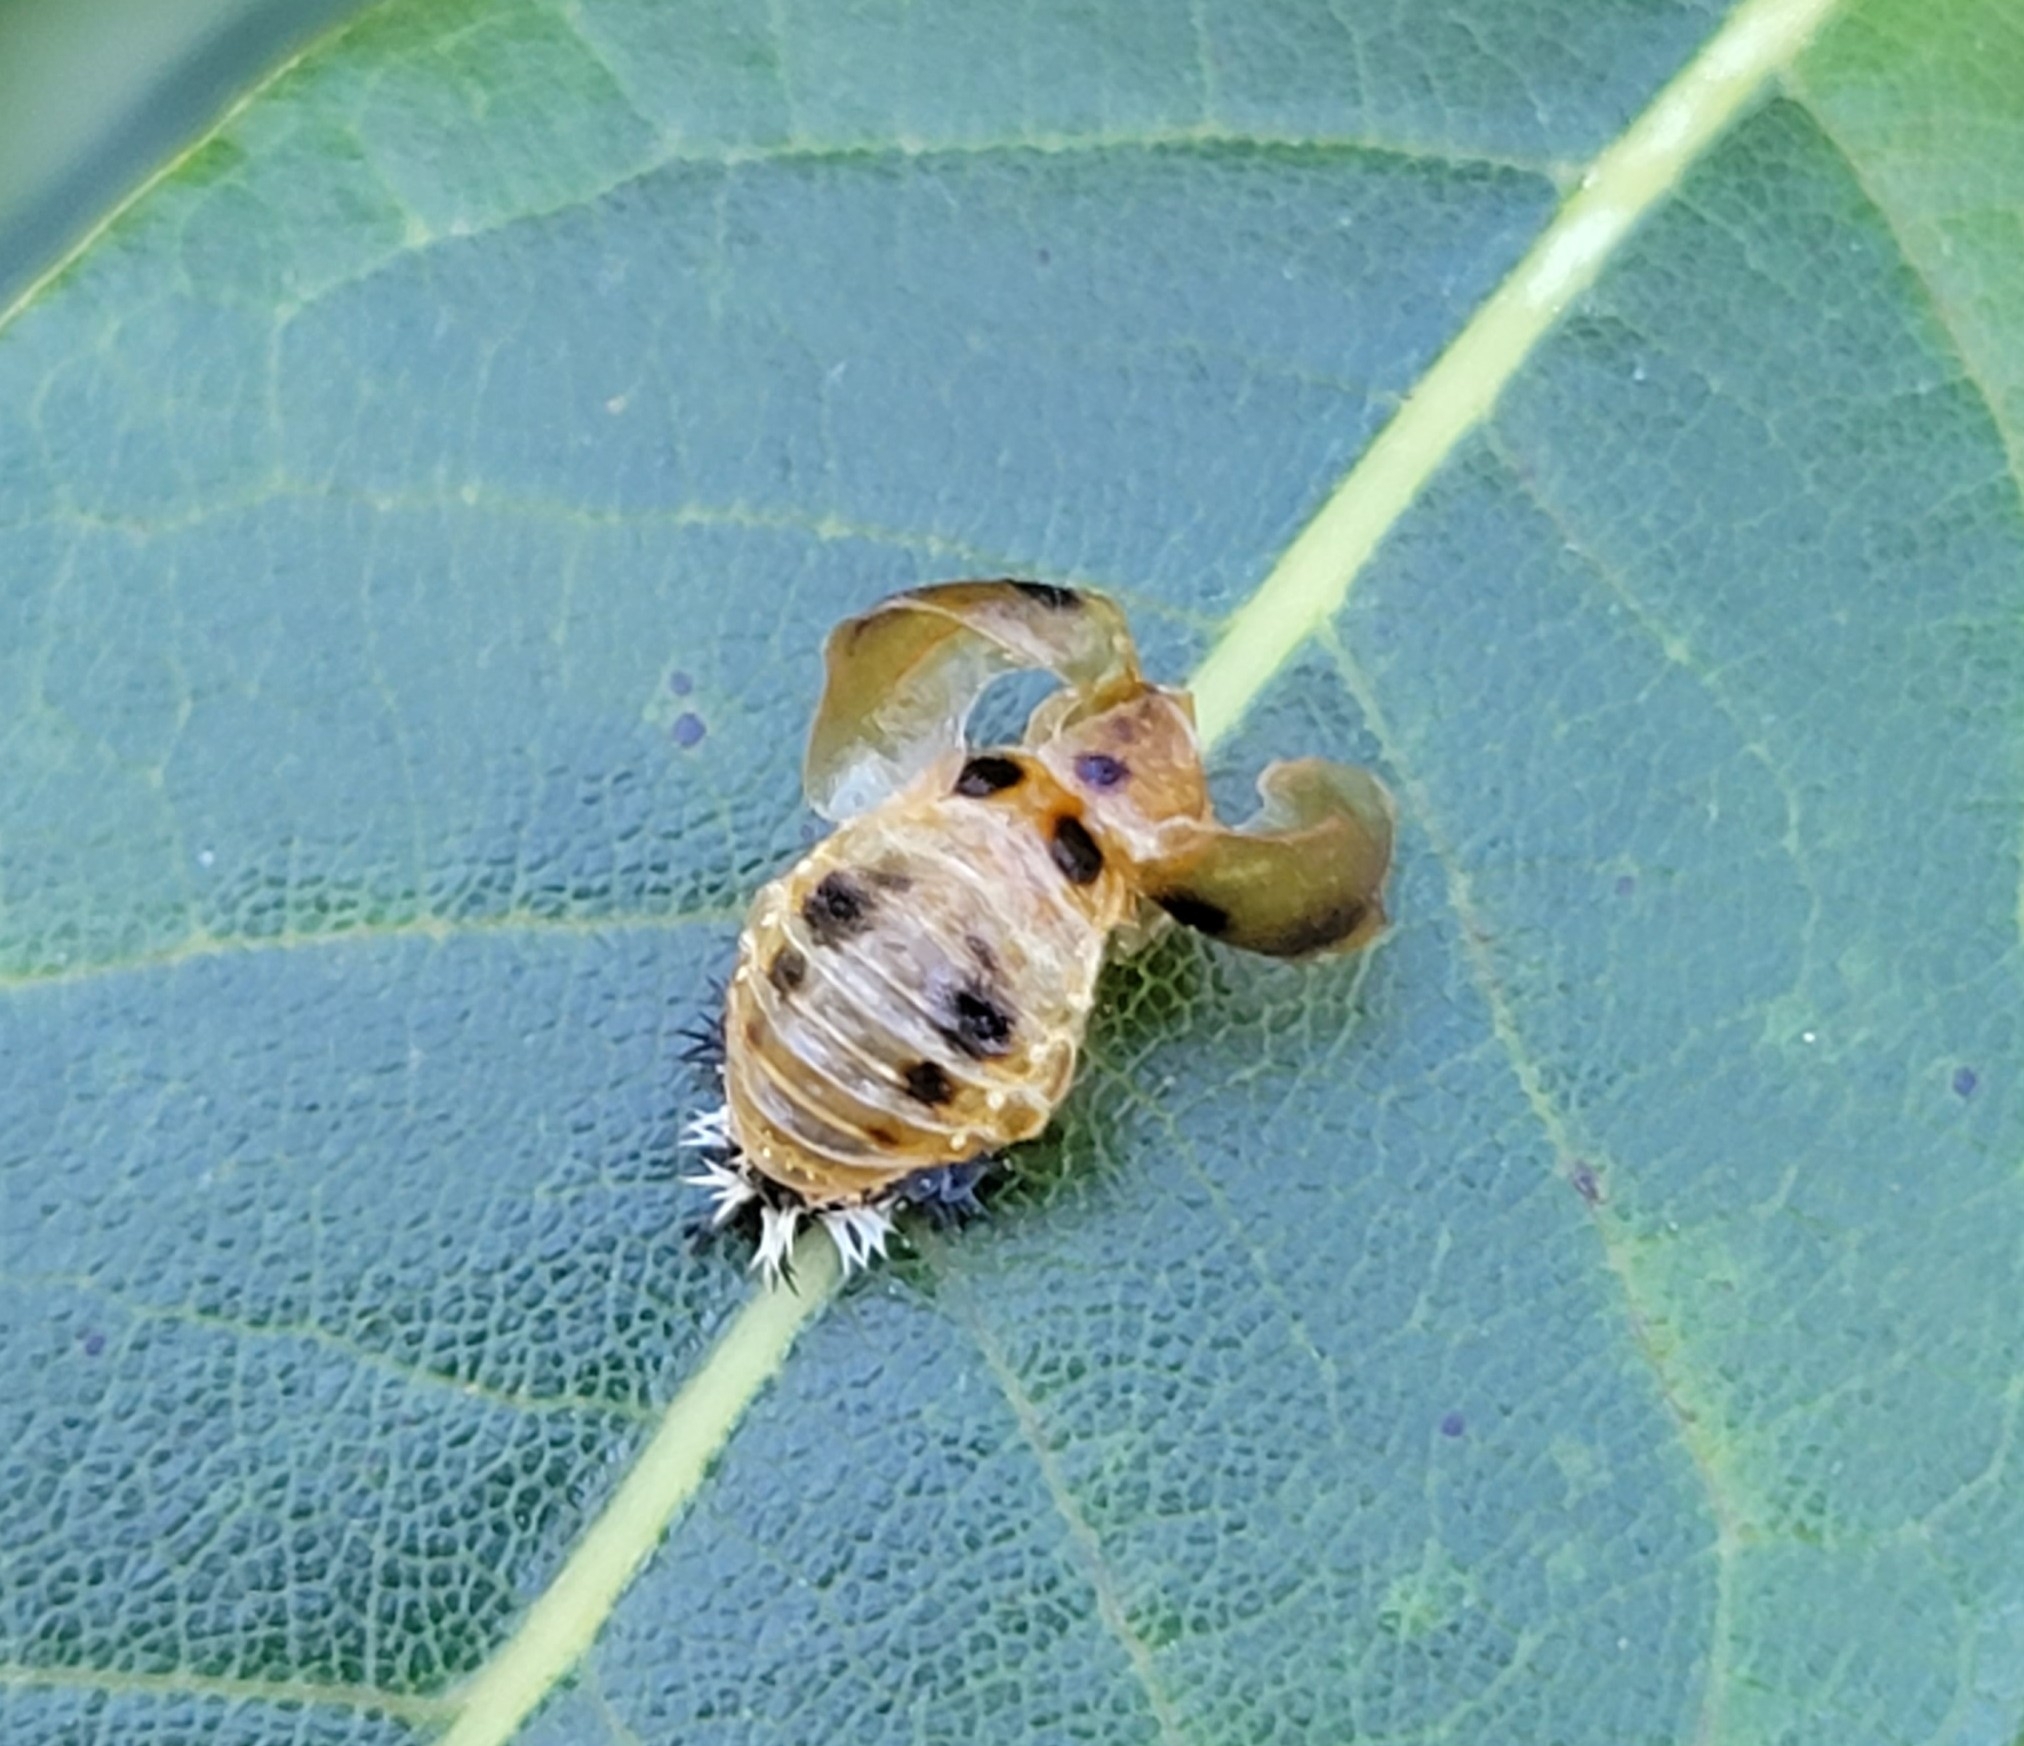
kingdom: Animalia
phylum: Arthropoda
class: Insecta
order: Coleoptera
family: Coccinellidae
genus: Harmonia
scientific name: Harmonia axyridis
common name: Harlequin ladybird
